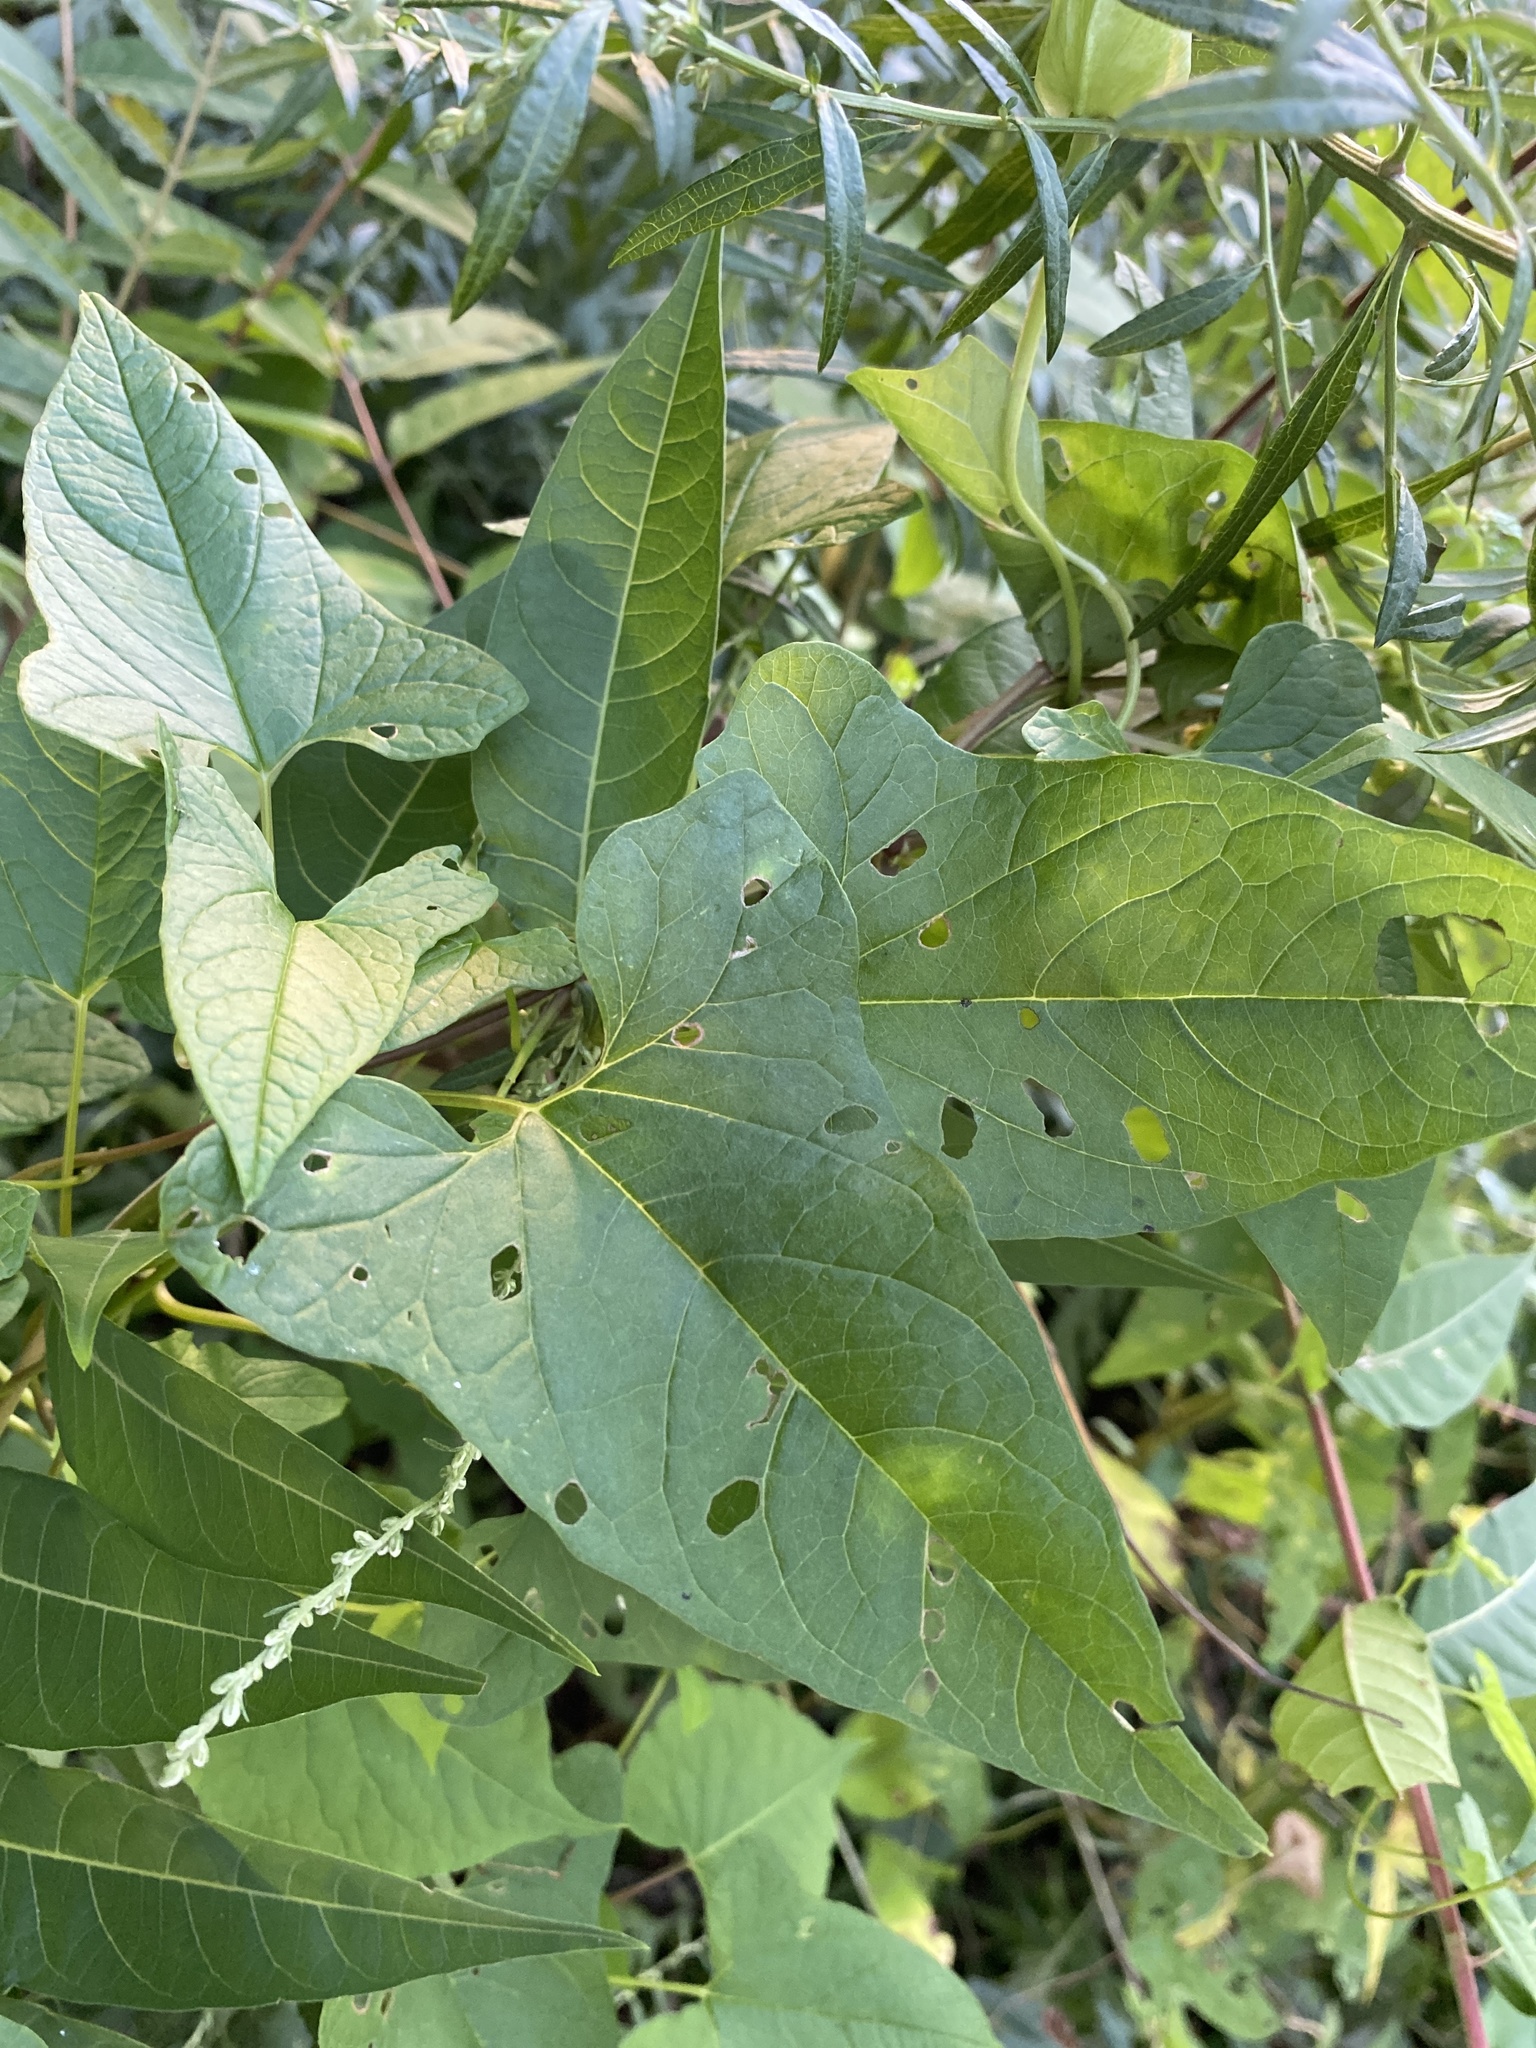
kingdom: Plantae
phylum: Tracheophyta
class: Magnoliopsida
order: Solanales
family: Convolvulaceae
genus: Calystegia
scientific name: Calystegia sepium
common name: Hedge bindweed
